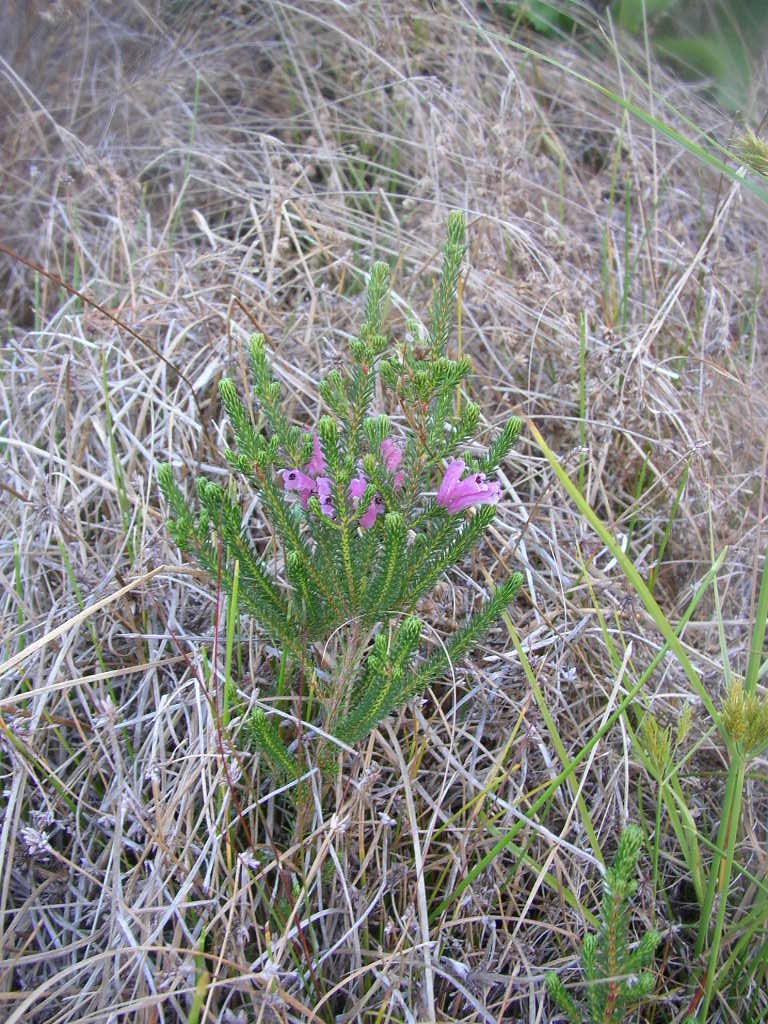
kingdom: Plantae
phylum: Tracheophyta
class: Magnoliopsida
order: Ericales
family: Ericaceae
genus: Erica
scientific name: Erica verticillata
